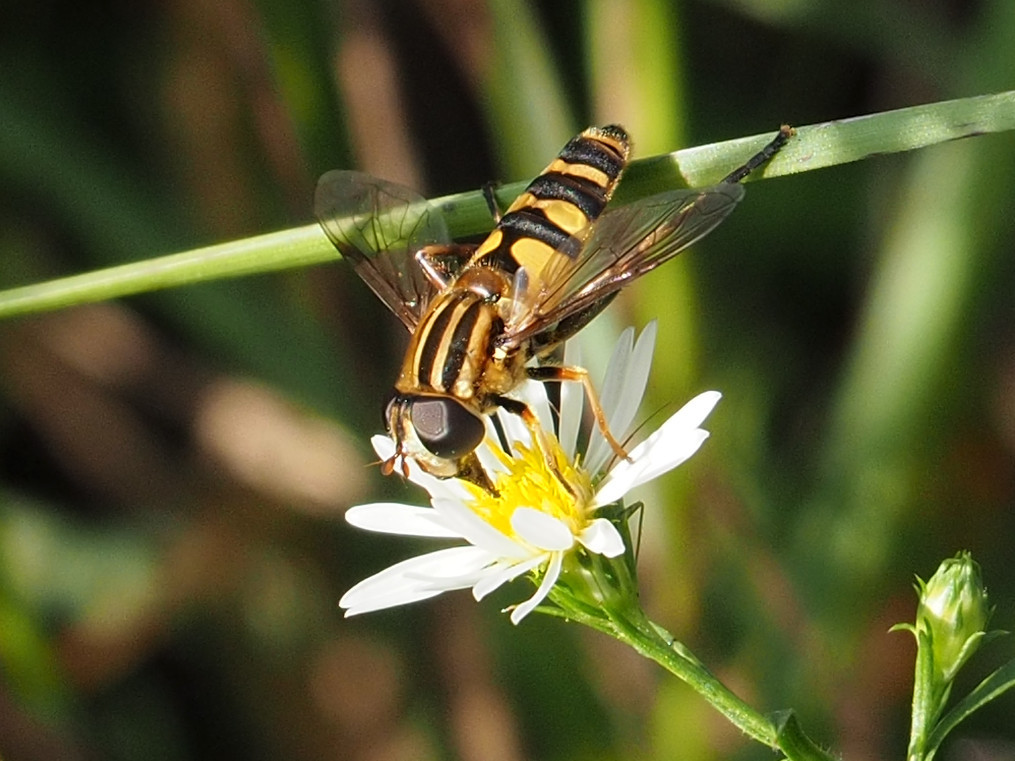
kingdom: Animalia
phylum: Arthropoda
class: Insecta
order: Diptera
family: Syrphidae
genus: Helophilus
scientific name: Helophilus fasciatus
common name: Narrow-headed marsh fly
